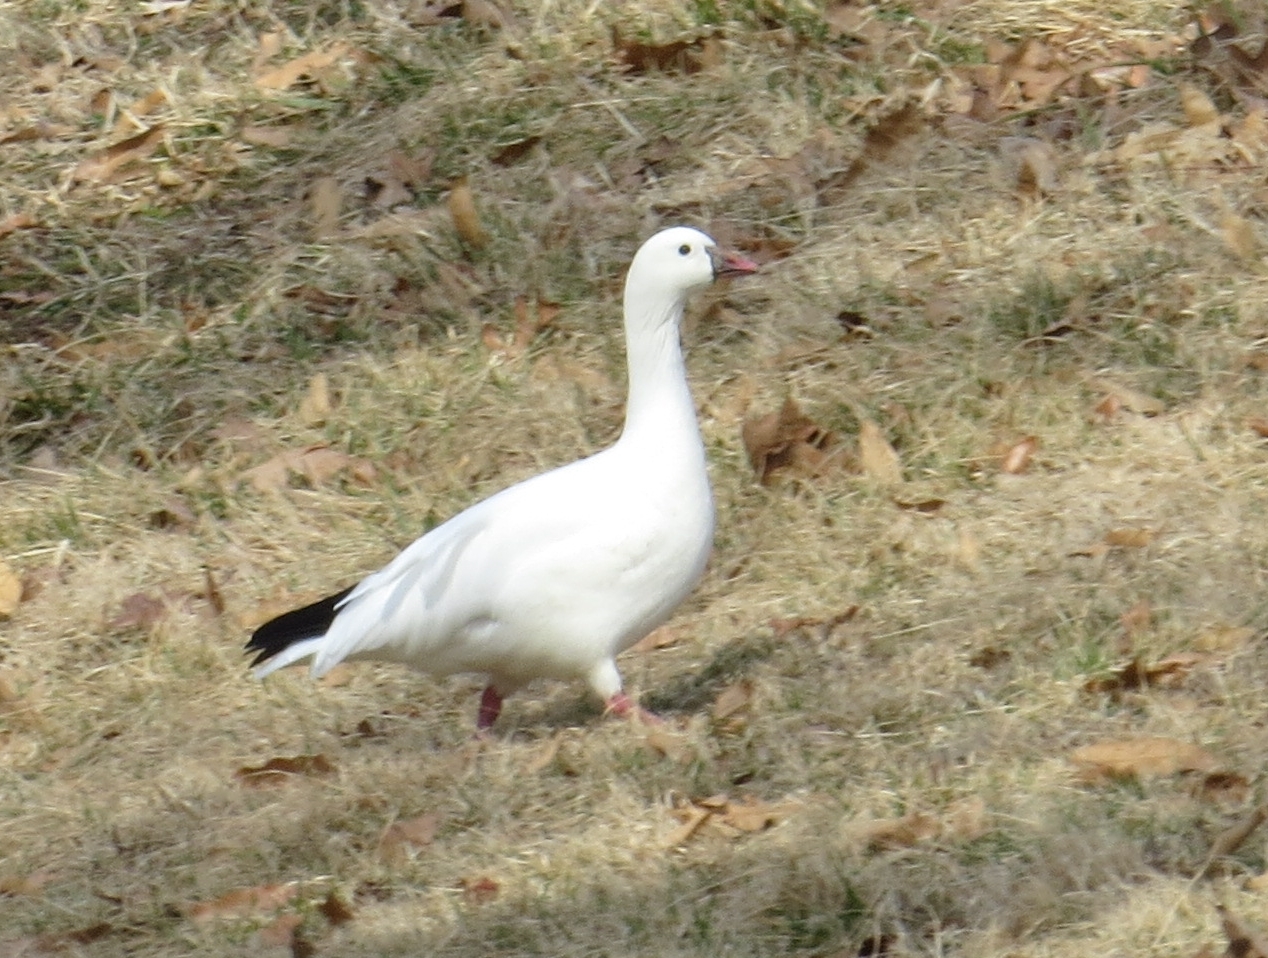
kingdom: Animalia
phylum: Chordata
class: Aves
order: Anseriformes
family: Anatidae
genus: Anser
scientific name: Anser rossii
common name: Ross's goose
